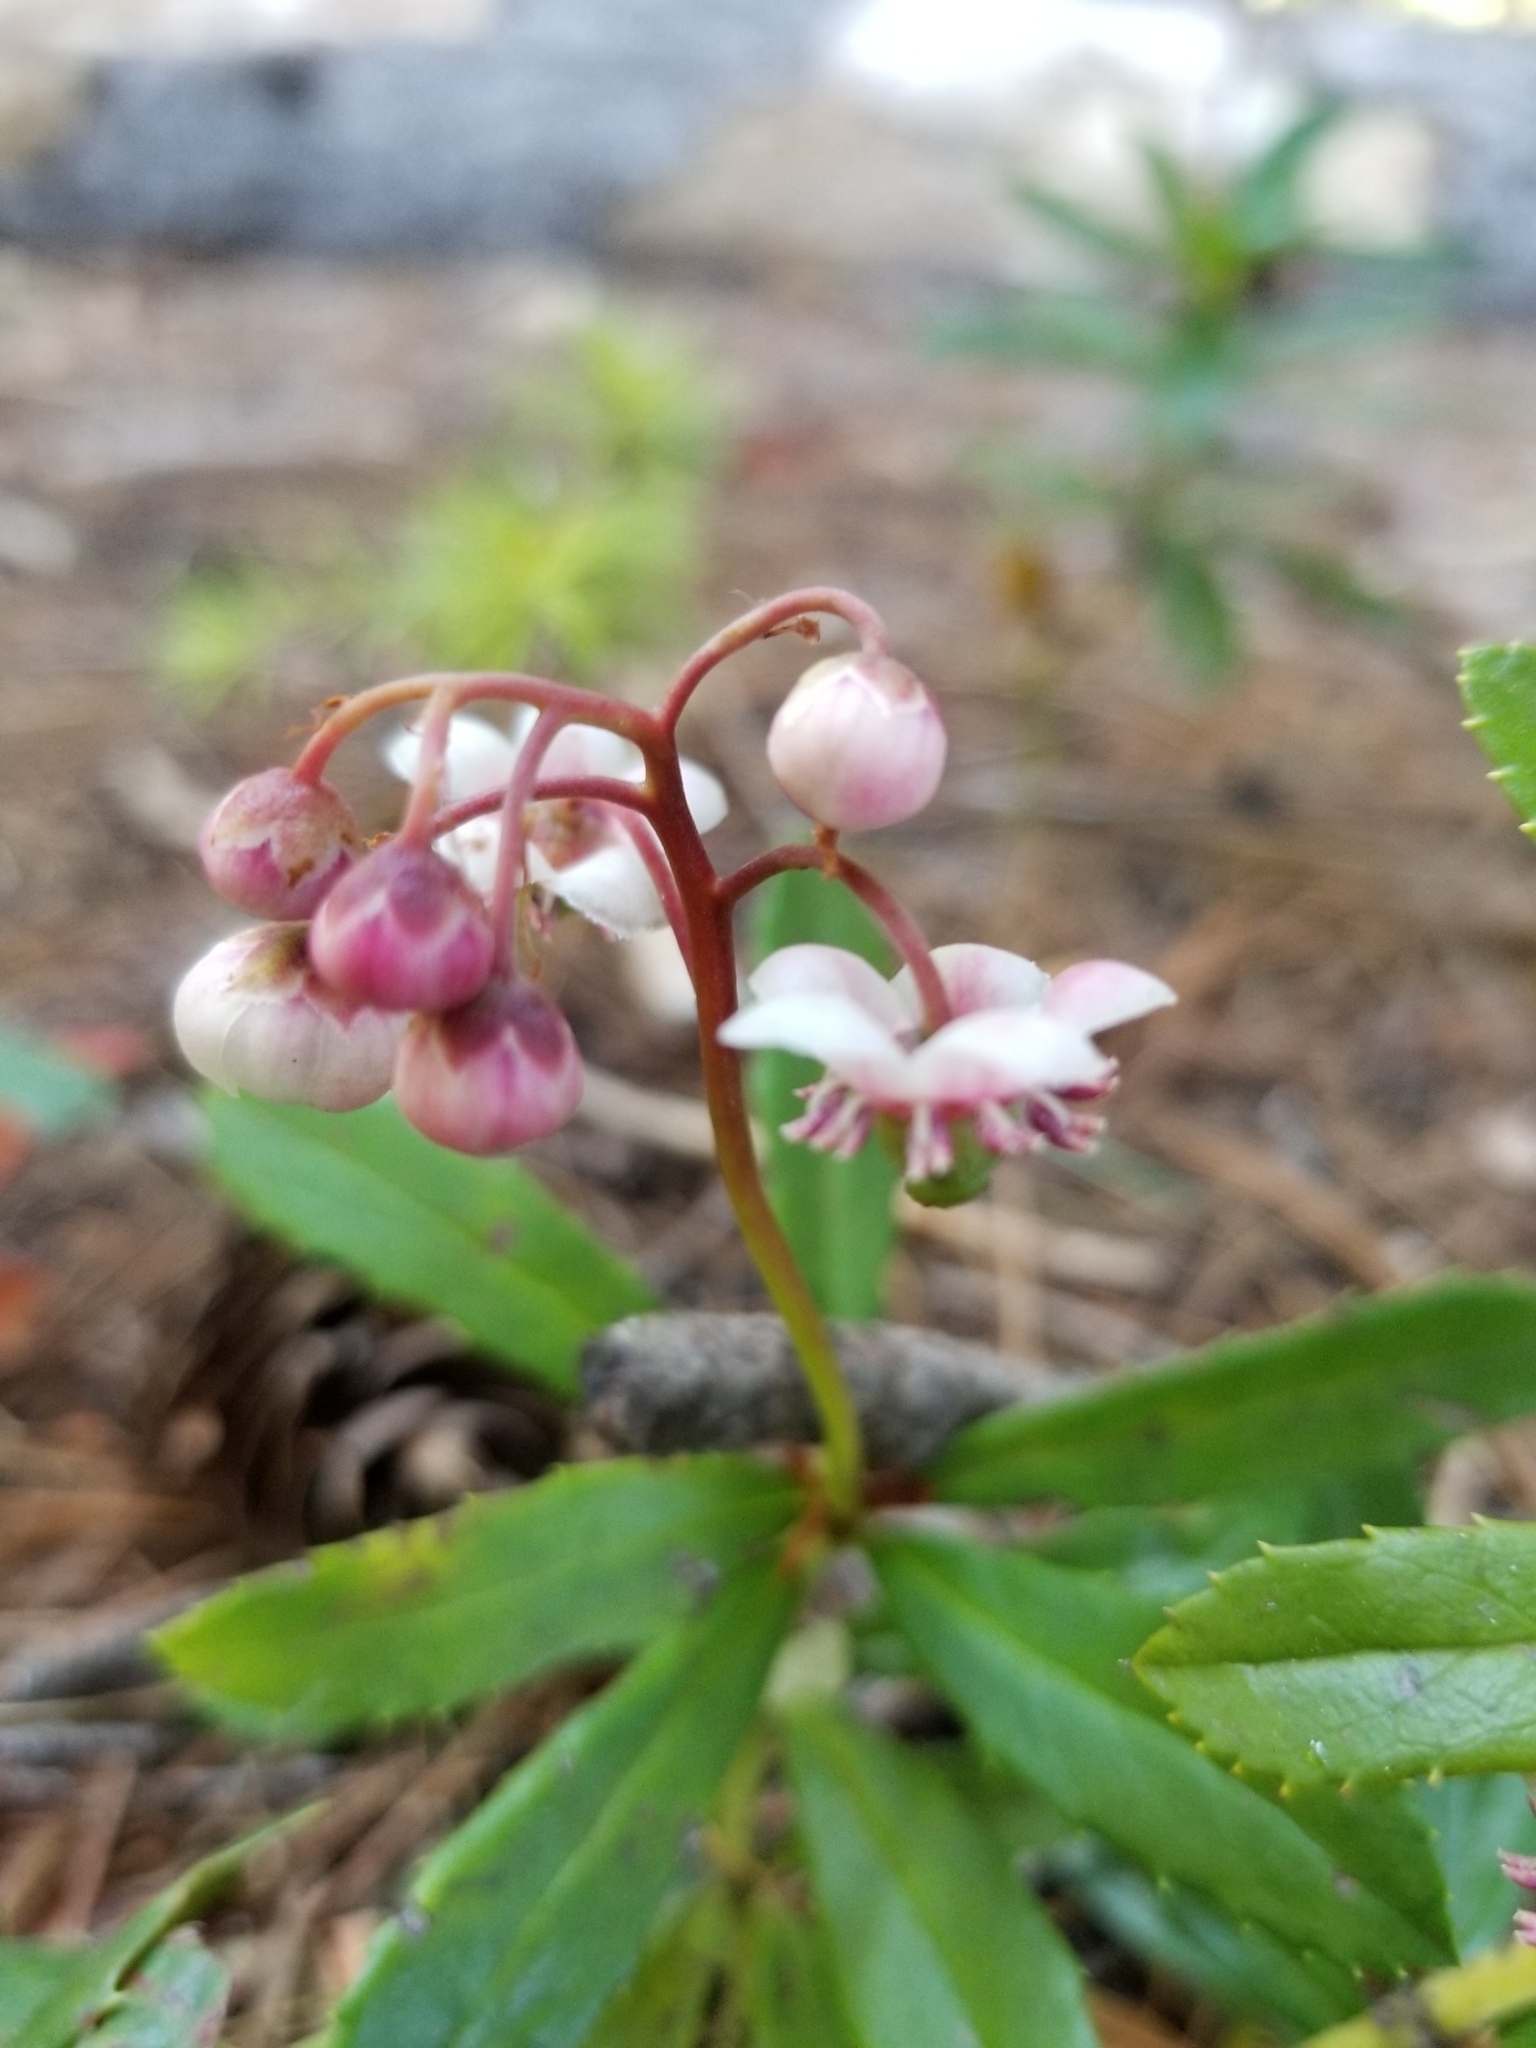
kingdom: Plantae
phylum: Tracheophyta
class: Magnoliopsida
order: Ericales
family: Ericaceae
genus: Chimaphila
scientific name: Chimaphila umbellata
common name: Pipsissewa
